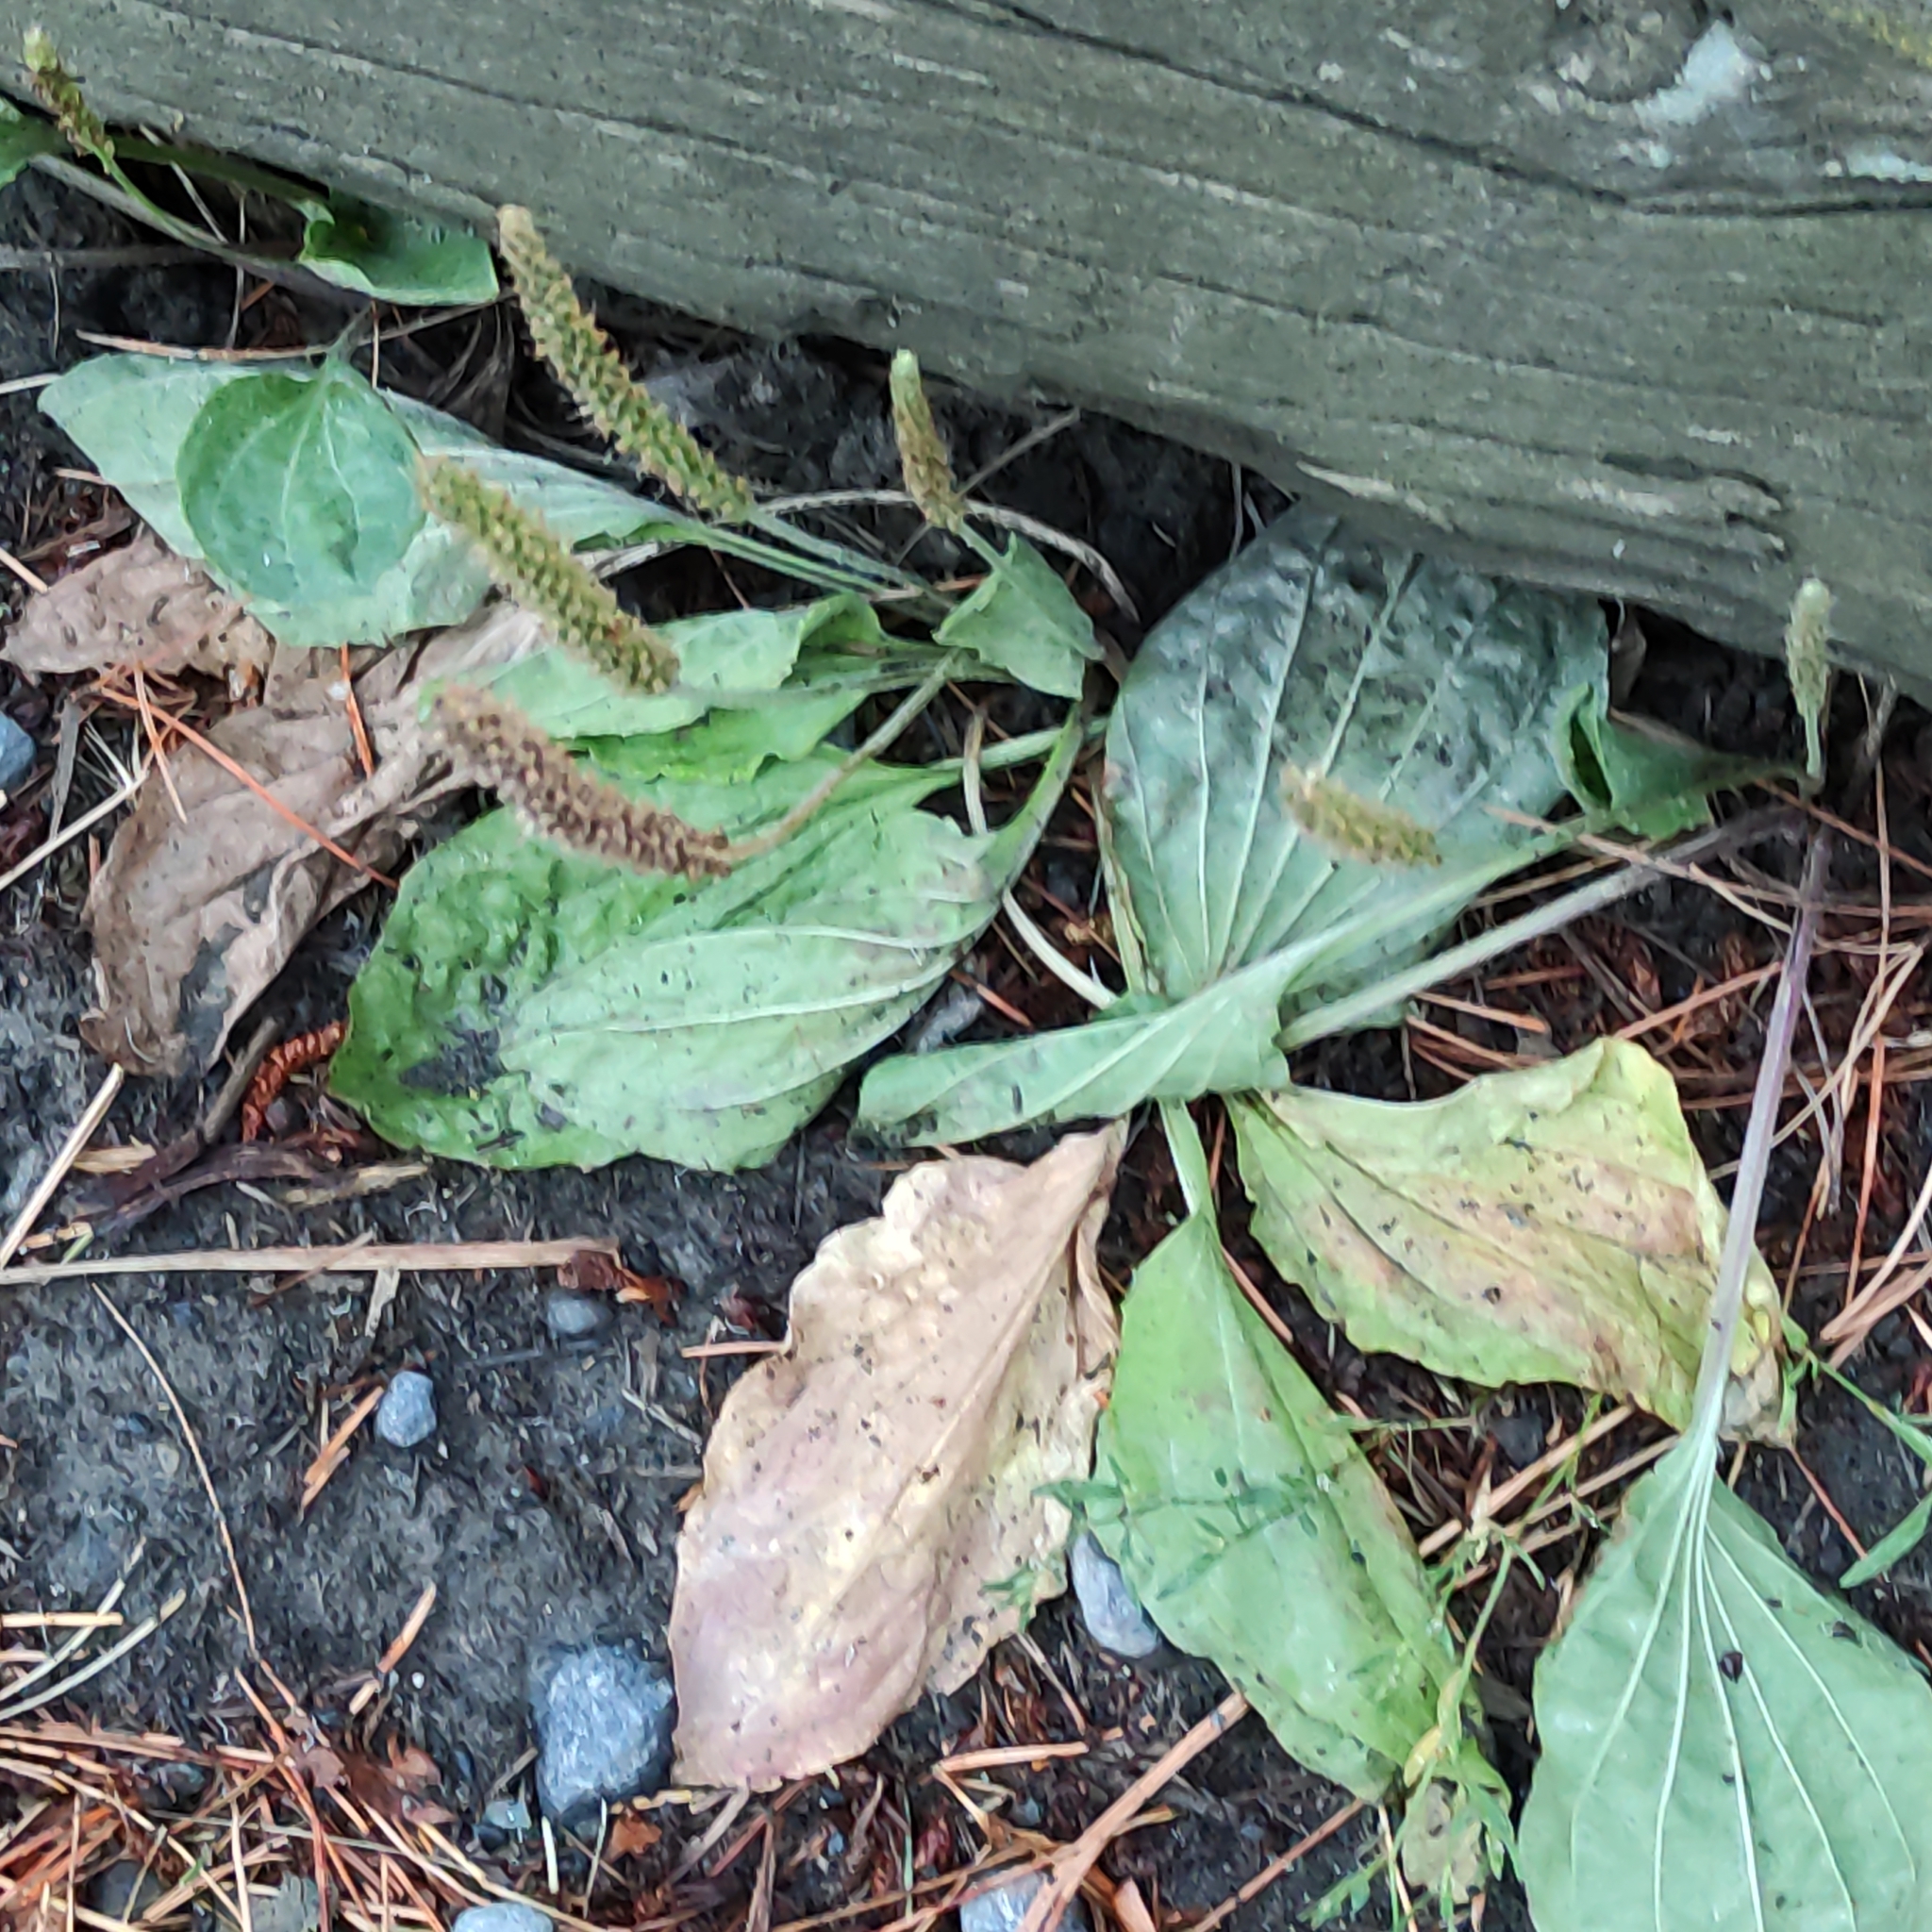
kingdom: Plantae
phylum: Tracheophyta
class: Magnoliopsida
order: Lamiales
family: Plantaginaceae
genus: Plantago
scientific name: Plantago major
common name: Common plantain
